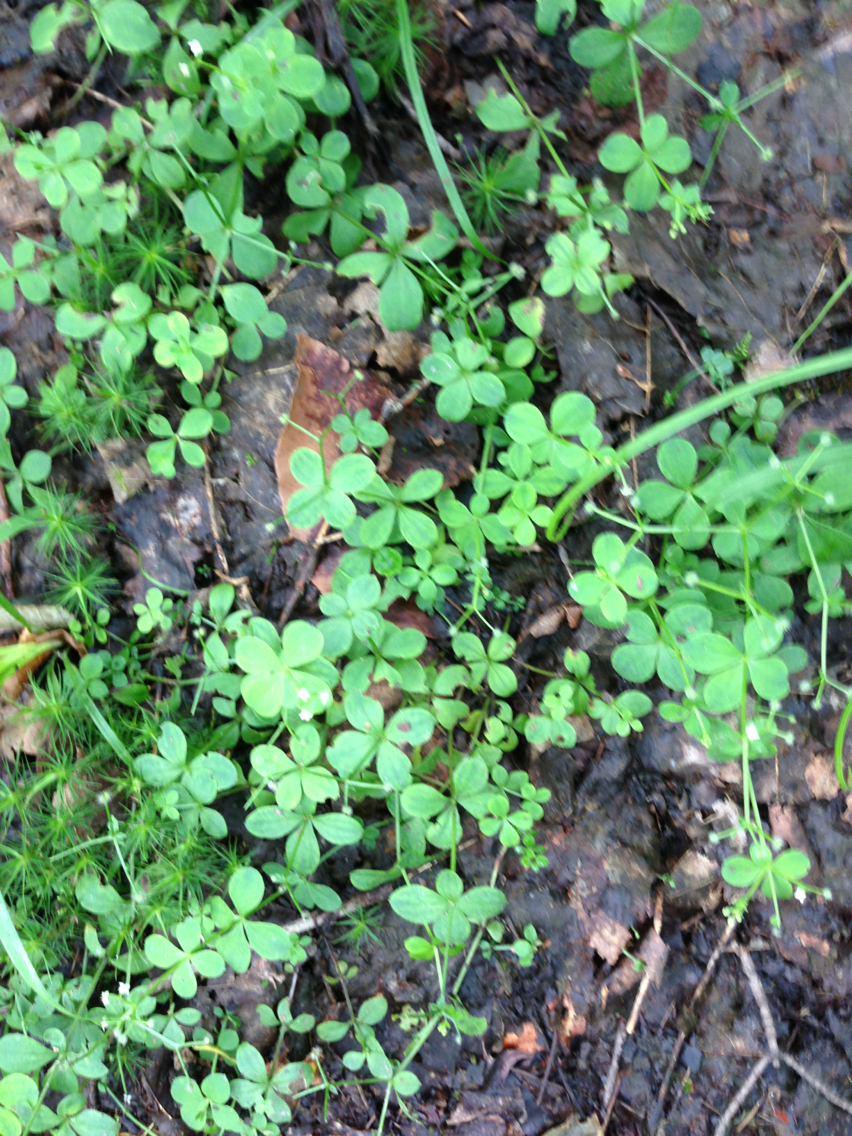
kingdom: Plantae
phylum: Tracheophyta
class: Magnoliopsida
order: Gentianales
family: Rubiaceae
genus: Galium
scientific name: Galium palustre
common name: Common marsh-bedstraw
